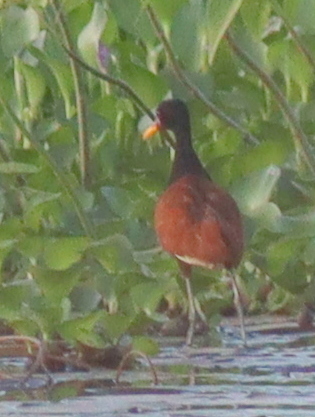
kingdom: Animalia
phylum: Chordata
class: Aves
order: Charadriiformes
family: Jacanidae
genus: Jacana
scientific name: Jacana jacana
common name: Wattled jacana
